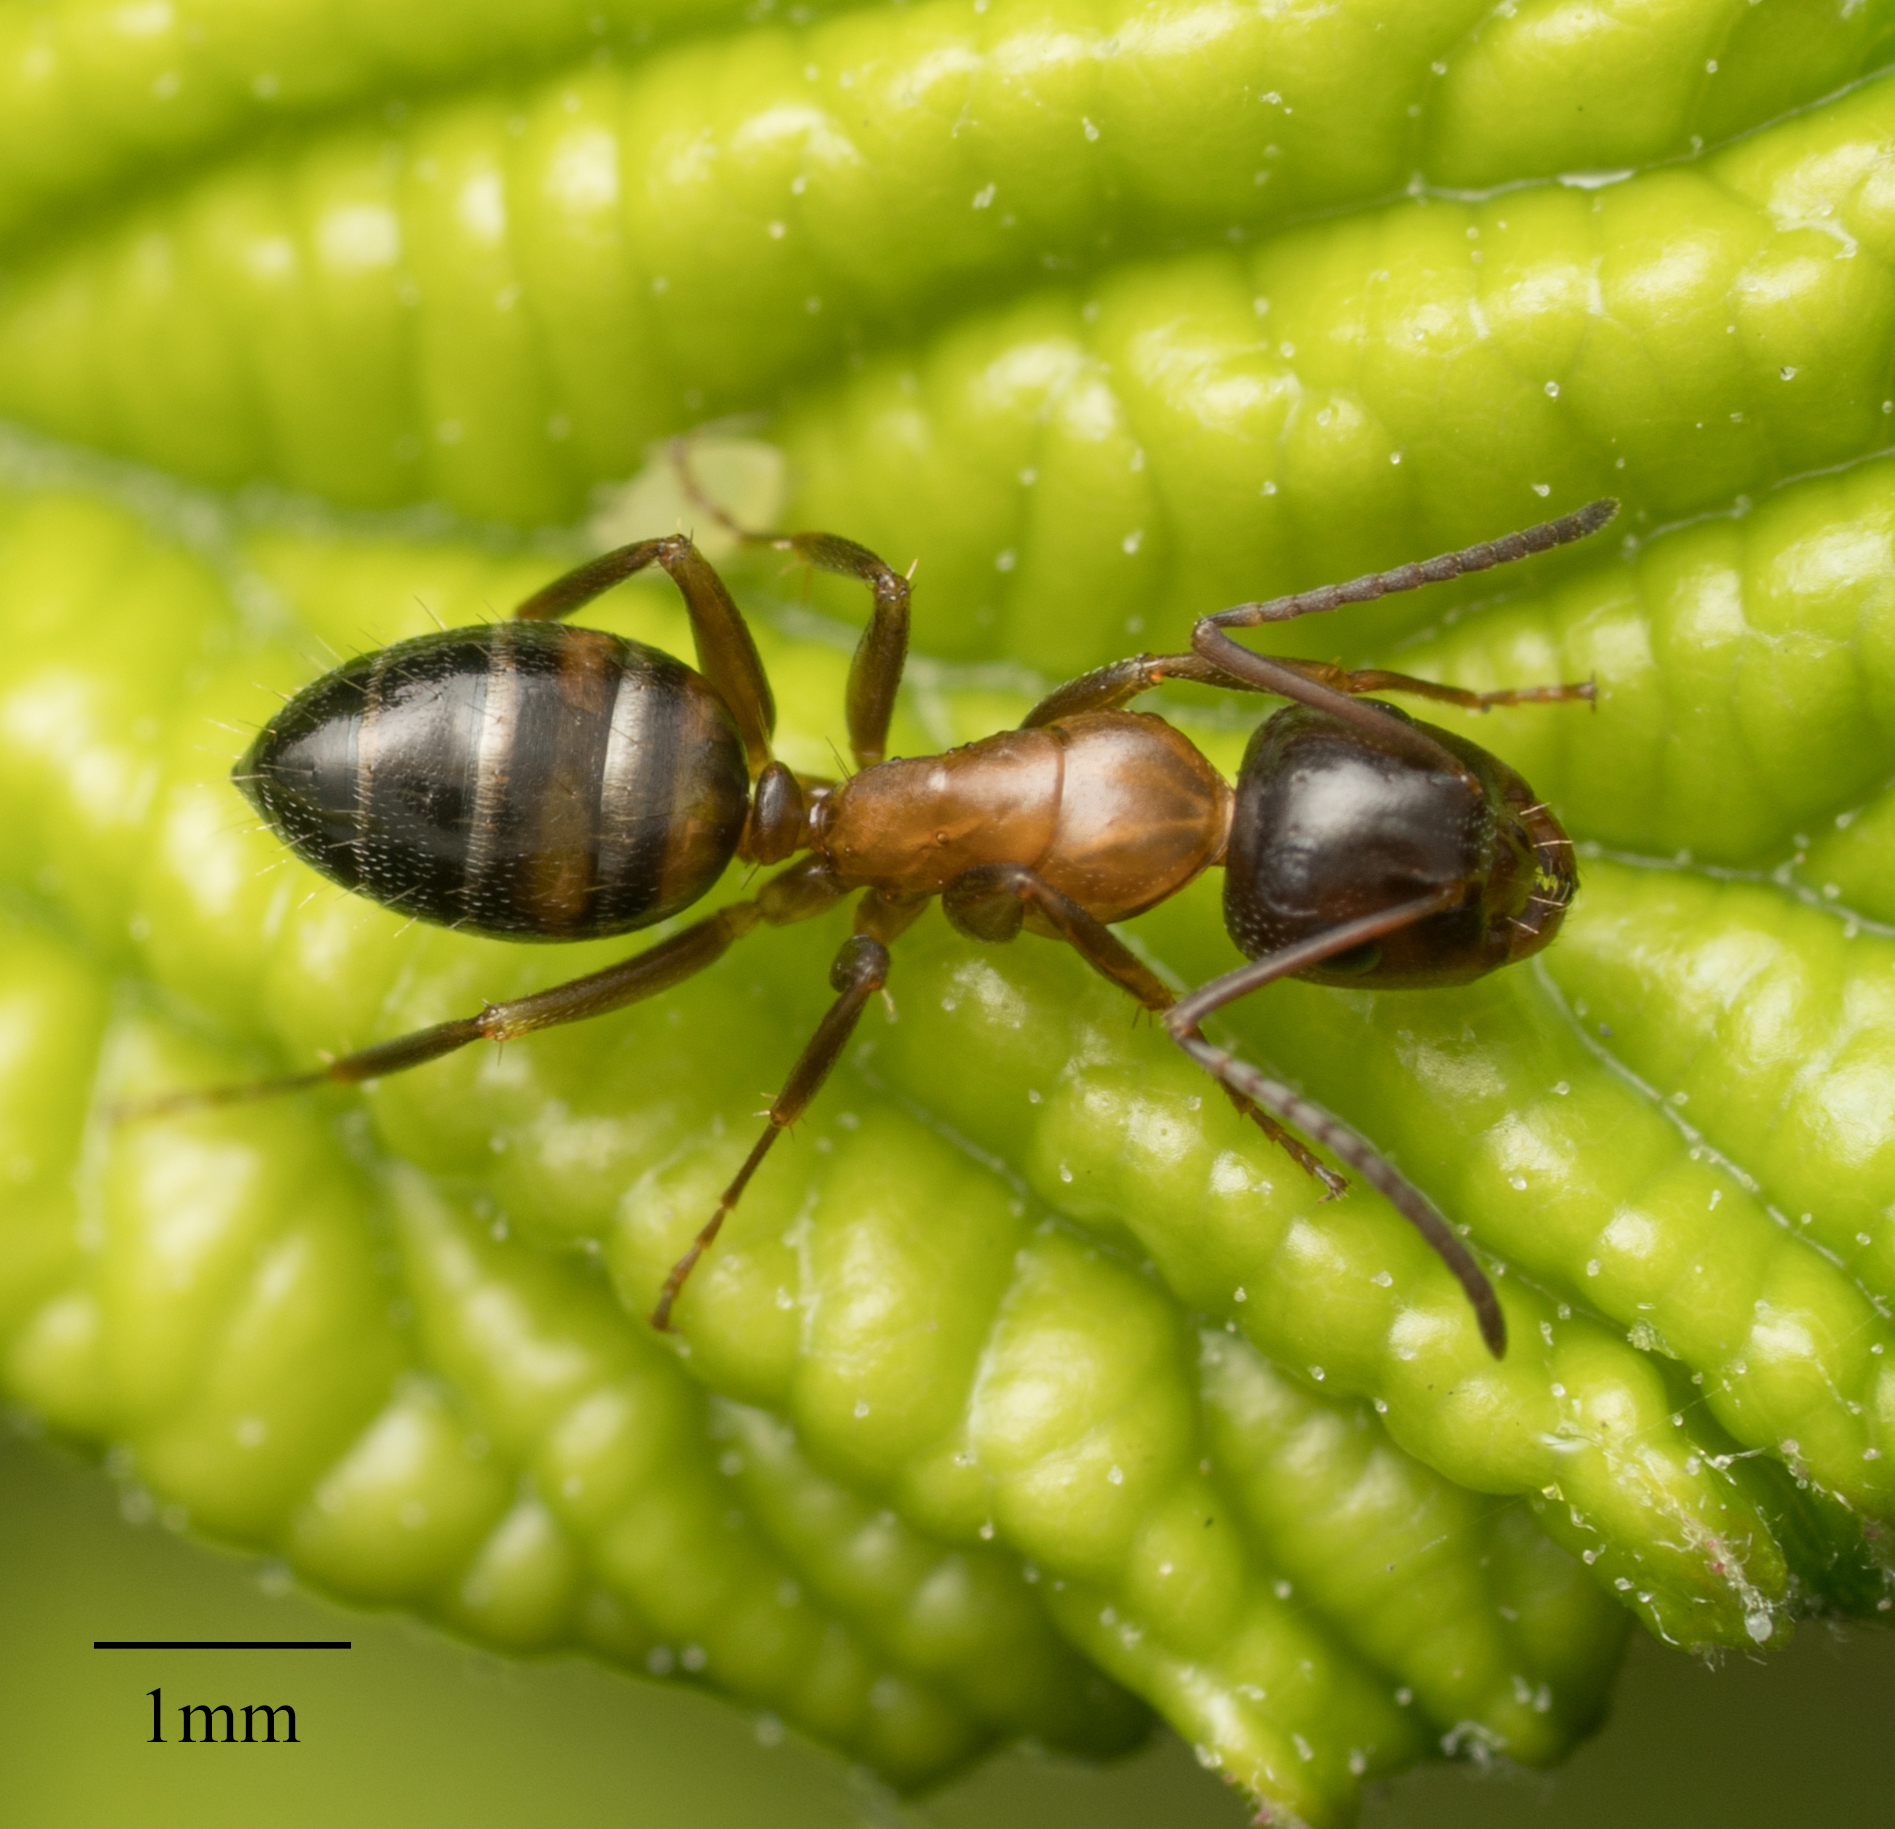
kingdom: Animalia
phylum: Arthropoda
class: Insecta
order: Hymenoptera
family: Formicidae
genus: Camponotus
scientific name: Camponotus essigi
